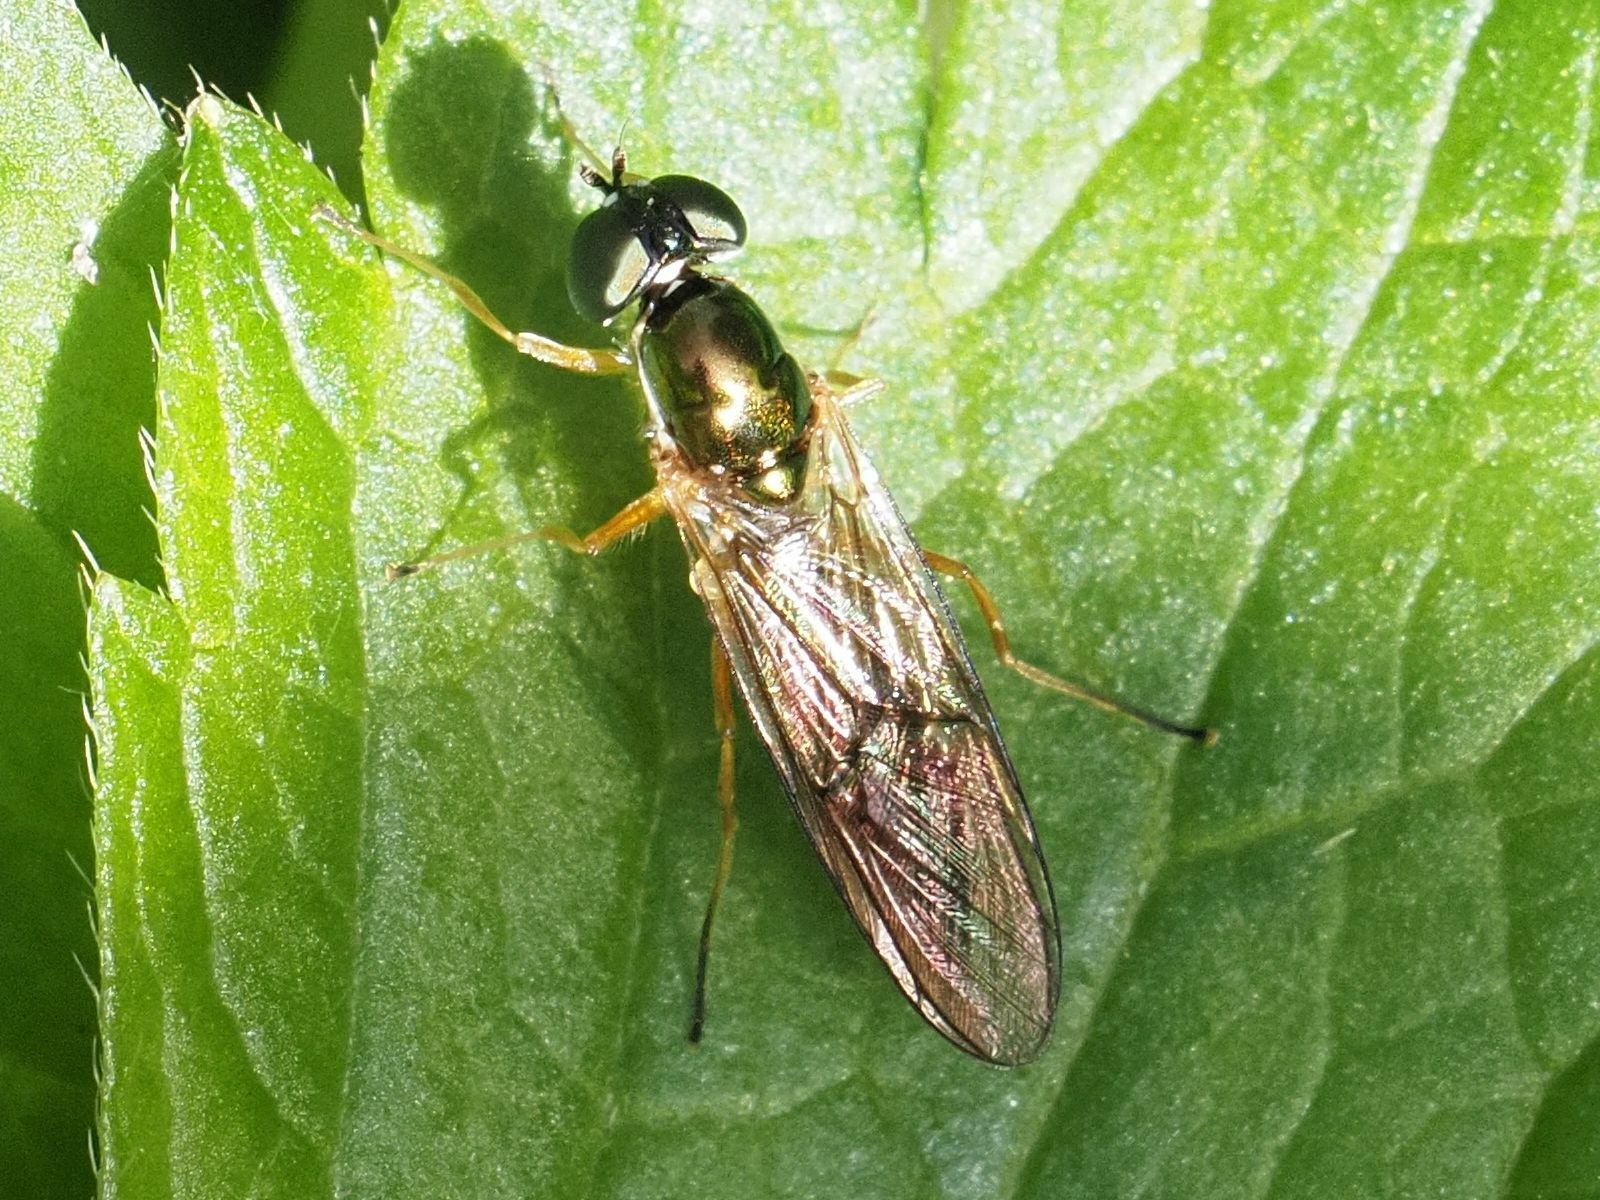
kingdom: Animalia
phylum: Arthropoda
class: Insecta
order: Diptera
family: Stratiomyidae
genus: Sargus
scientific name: Sargus bipunctatus
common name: Twin-spot centurion
